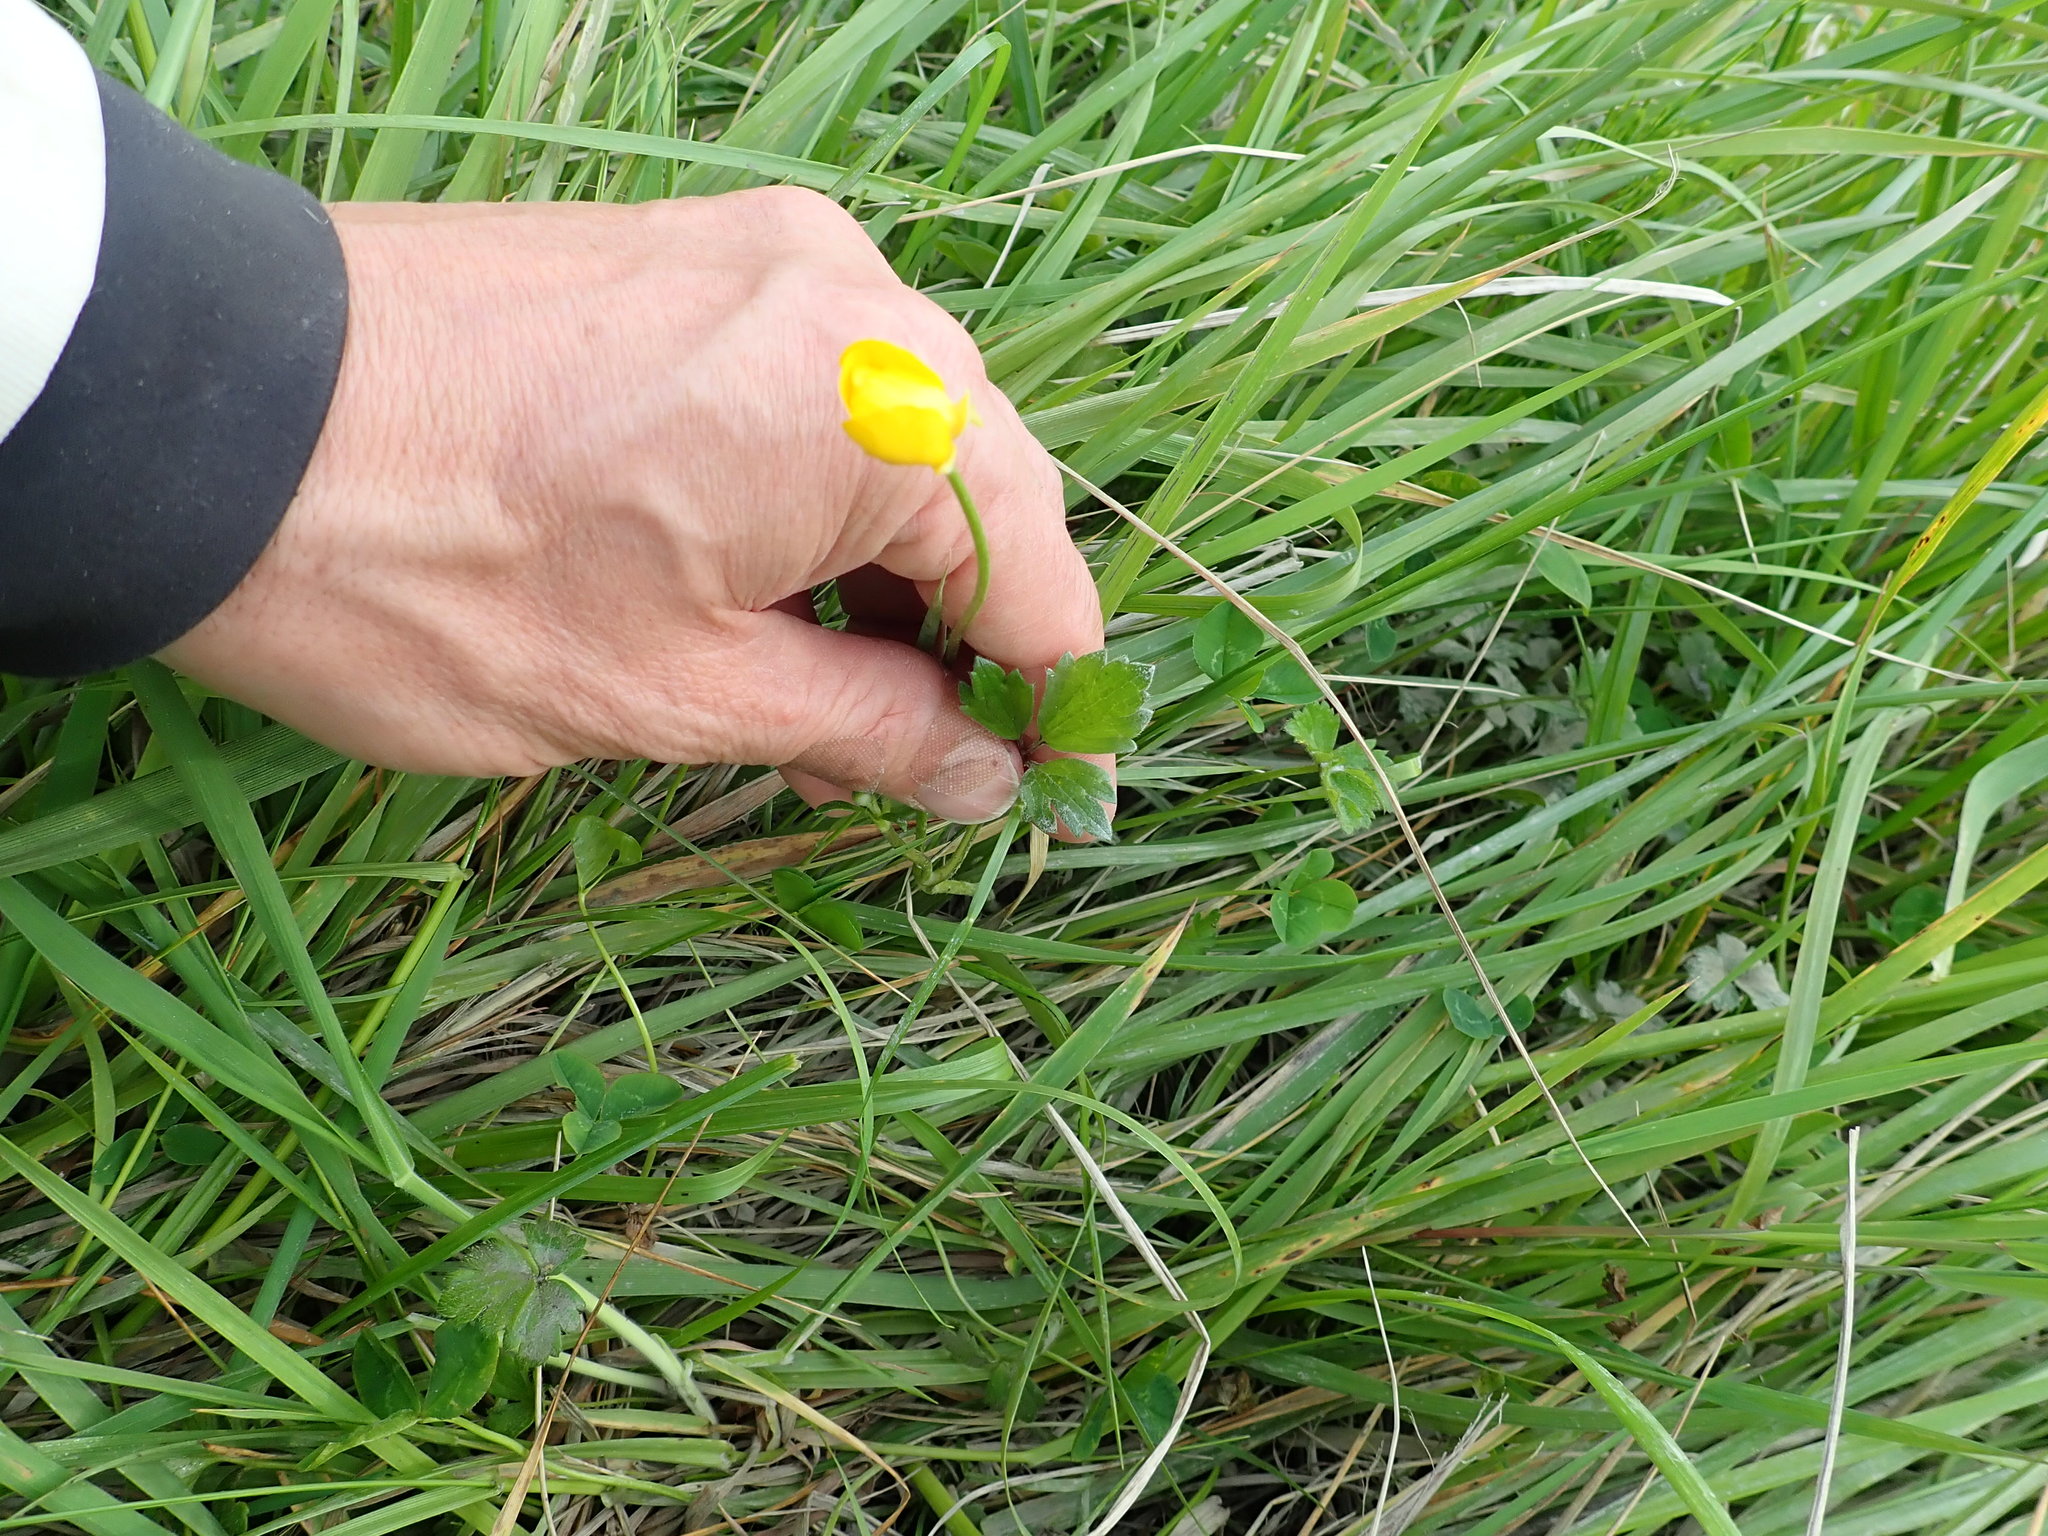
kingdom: Plantae
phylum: Tracheophyta
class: Magnoliopsida
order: Ranunculales
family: Ranunculaceae
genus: Ranunculus
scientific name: Ranunculus repens
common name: Creeping buttercup
